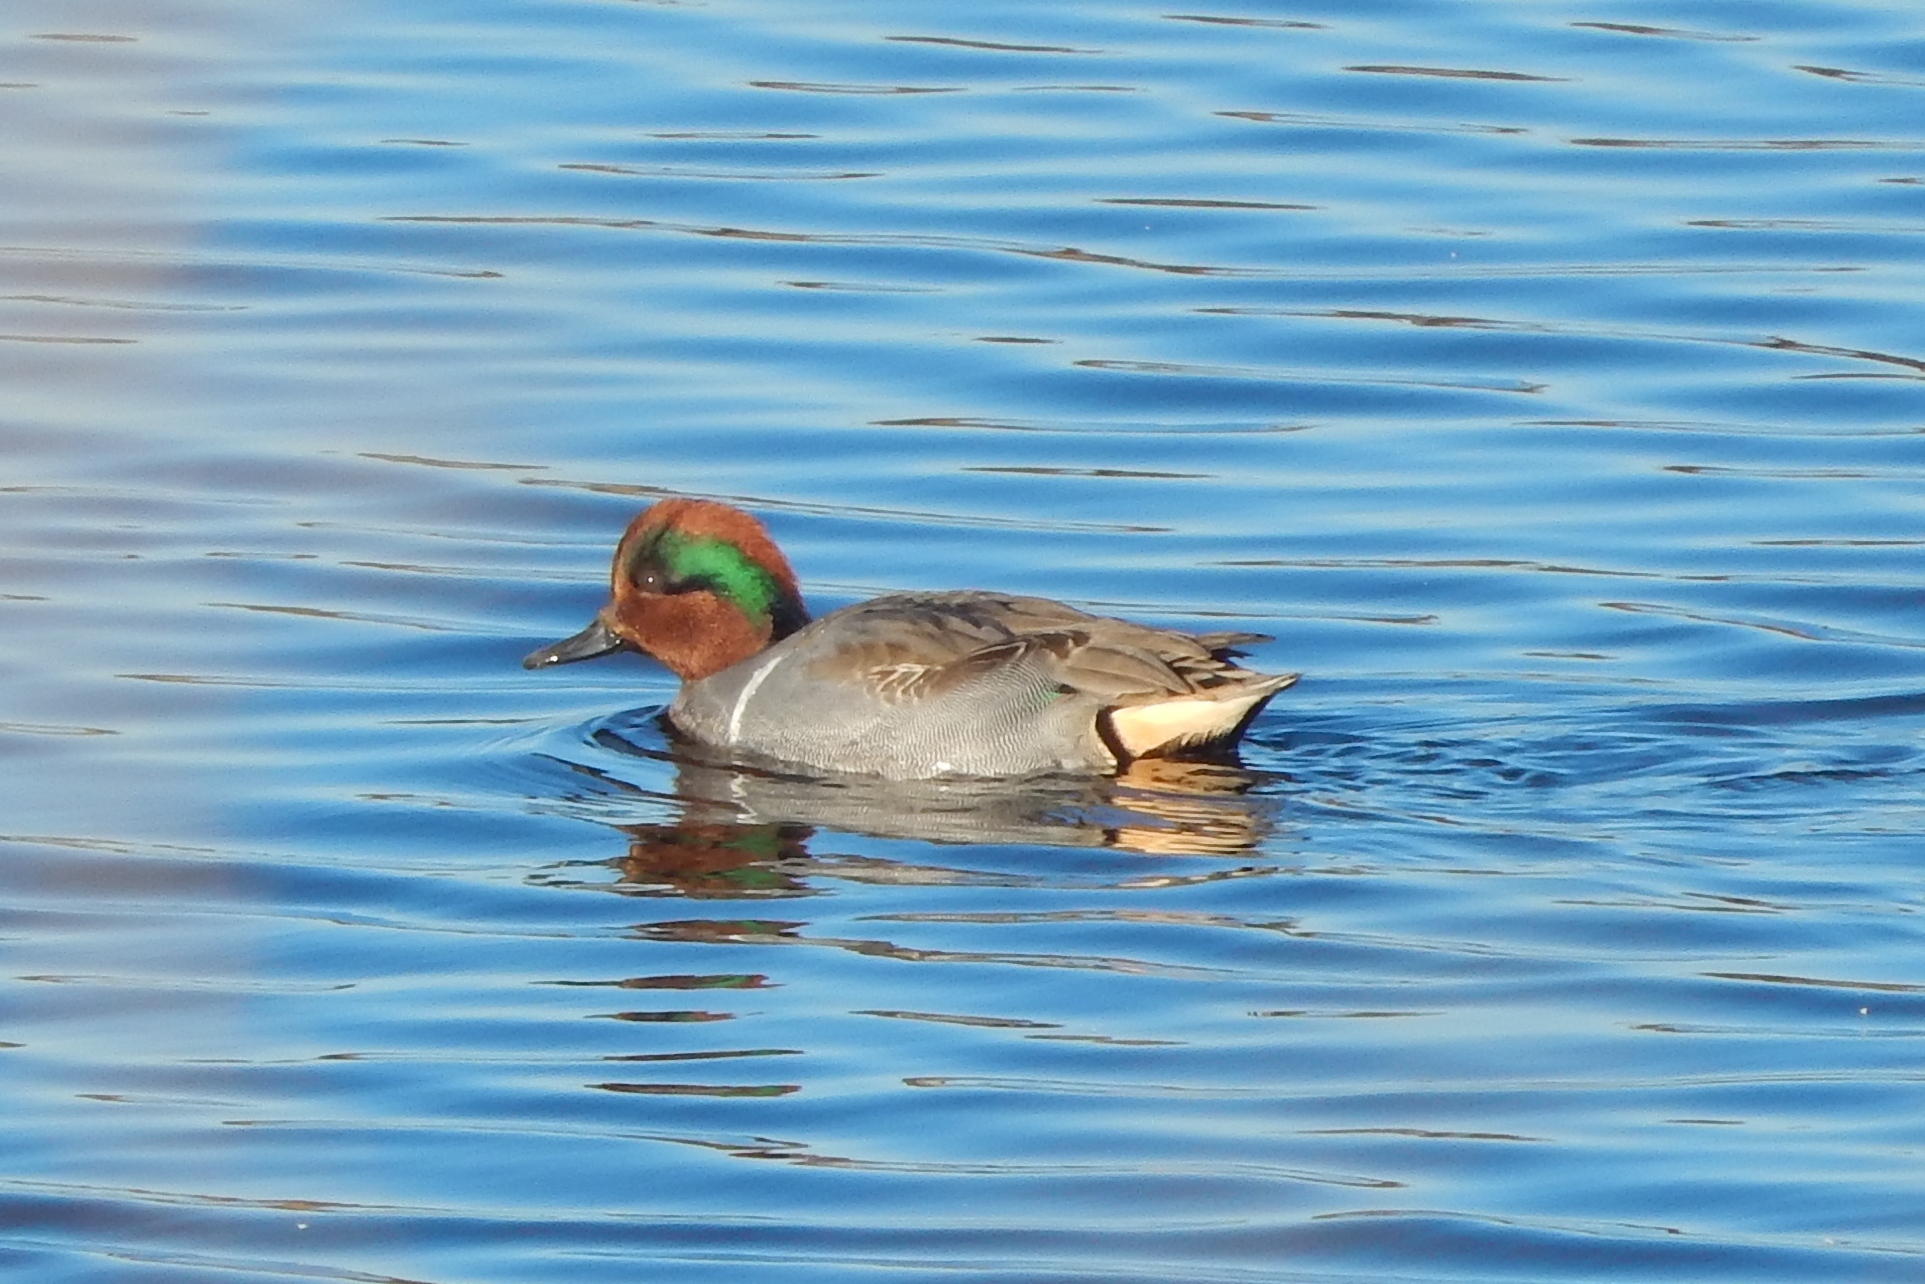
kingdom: Animalia
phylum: Chordata
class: Aves
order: Anseriformes
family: Anatidae
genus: Anas
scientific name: Anas carolinensis
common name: Green-winged teal
